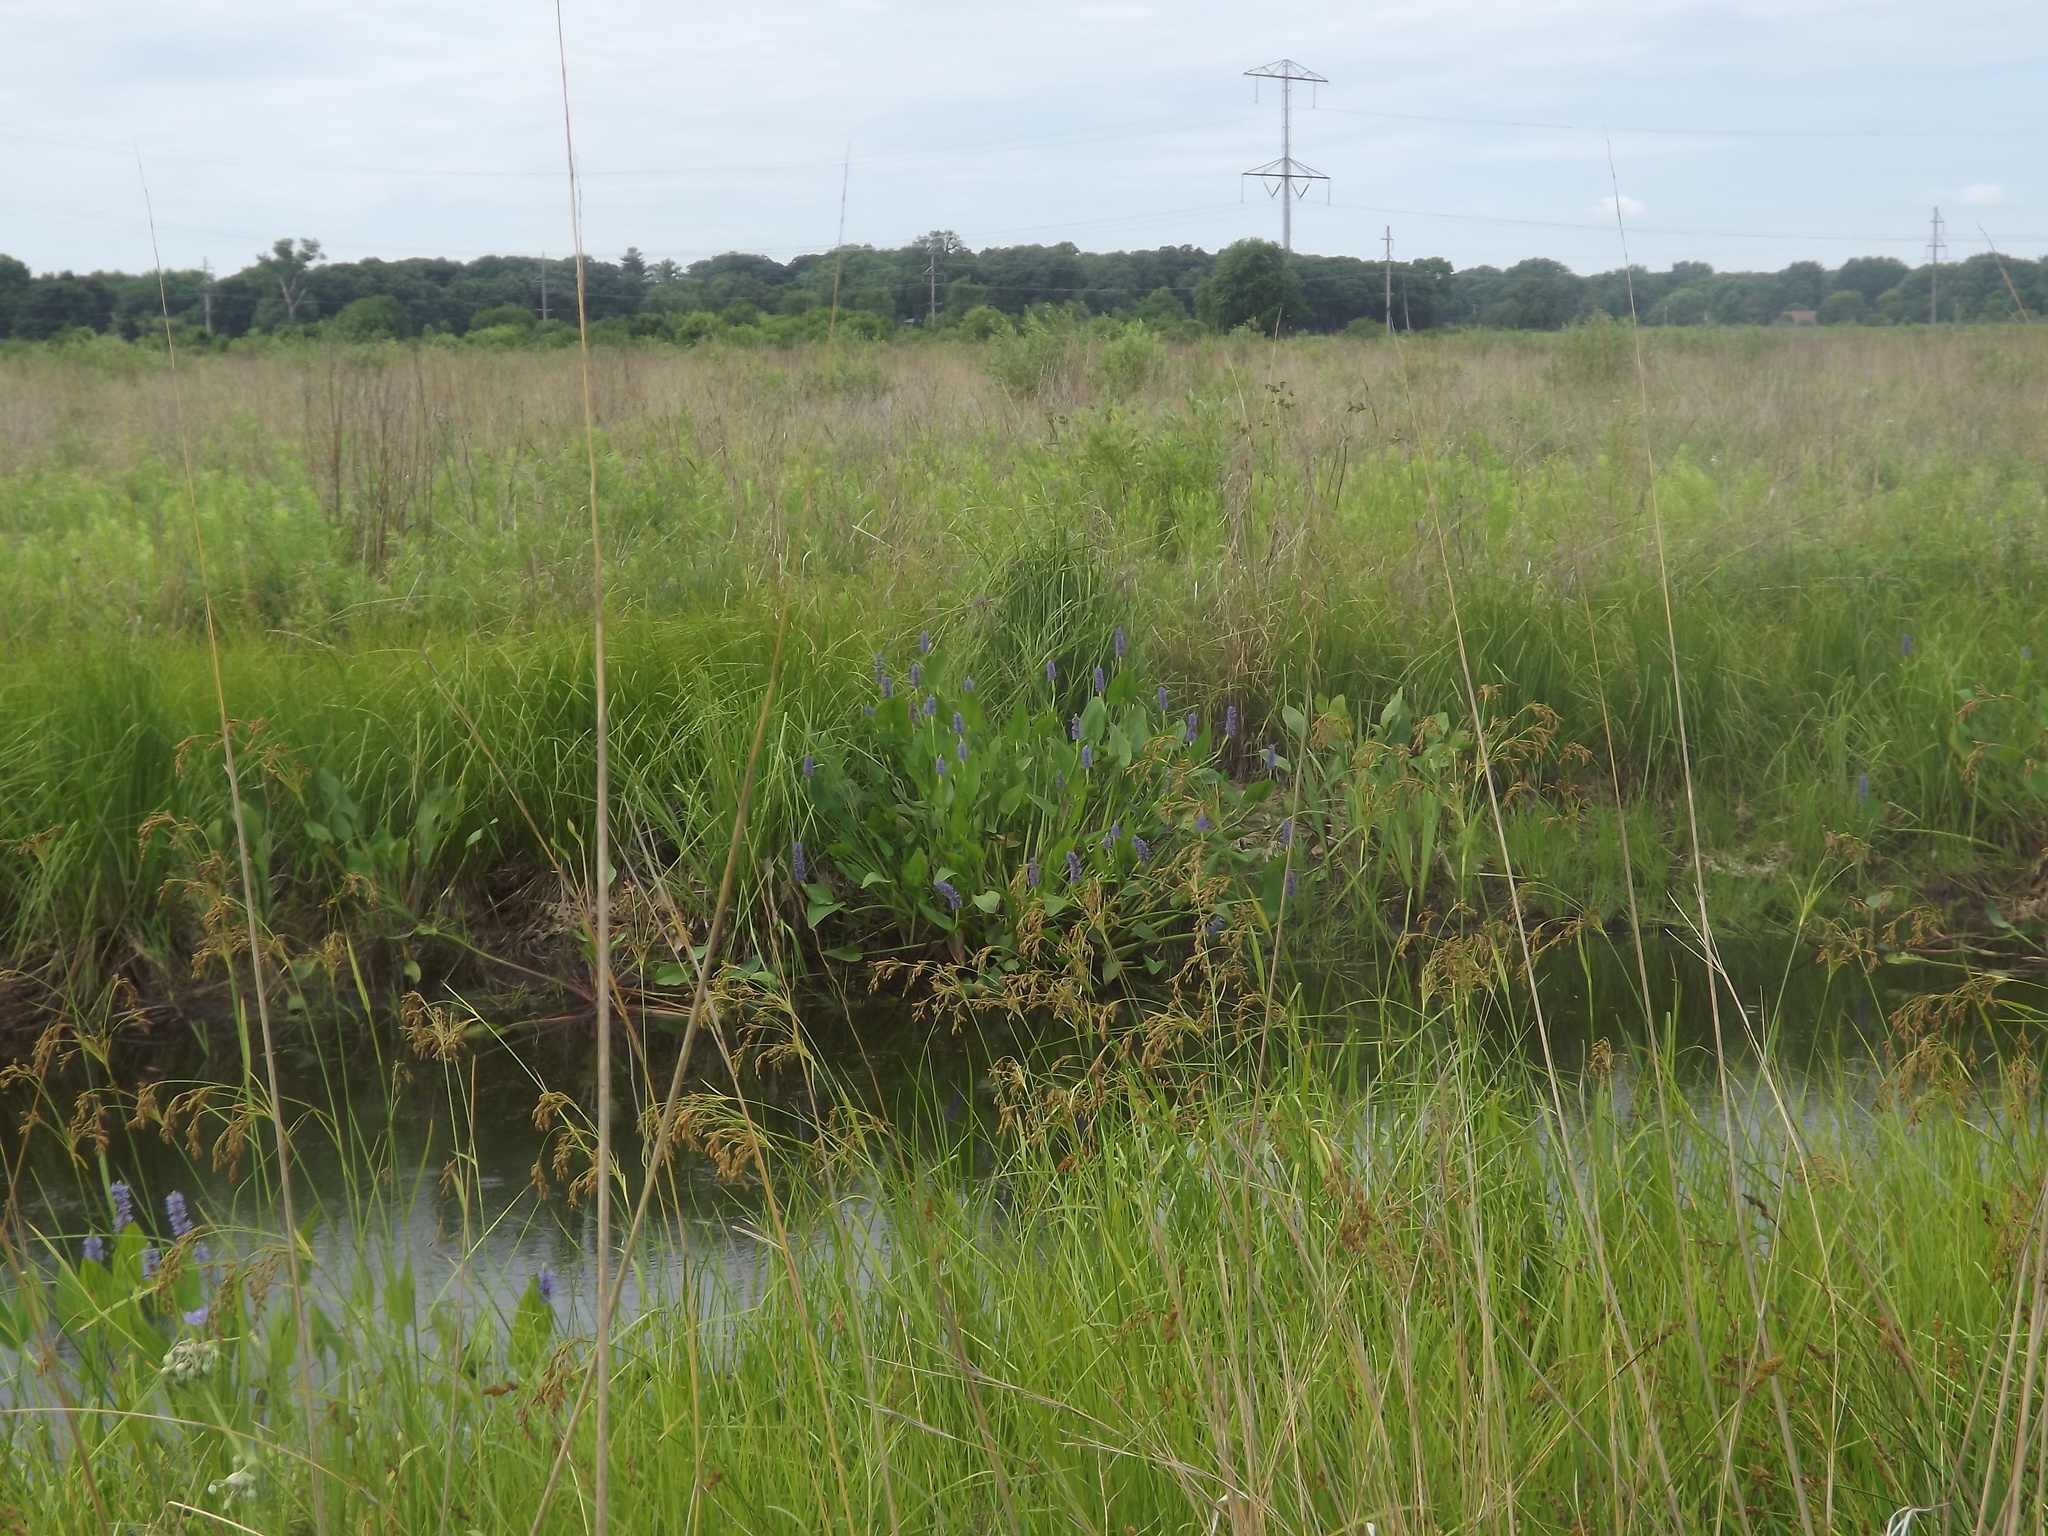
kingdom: Plantae
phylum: Tracheophyta
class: Liliopsida
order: Commelinales
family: Pontederiaceae
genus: Pontederia
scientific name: Pontederia cordata
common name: Pickerelweed
